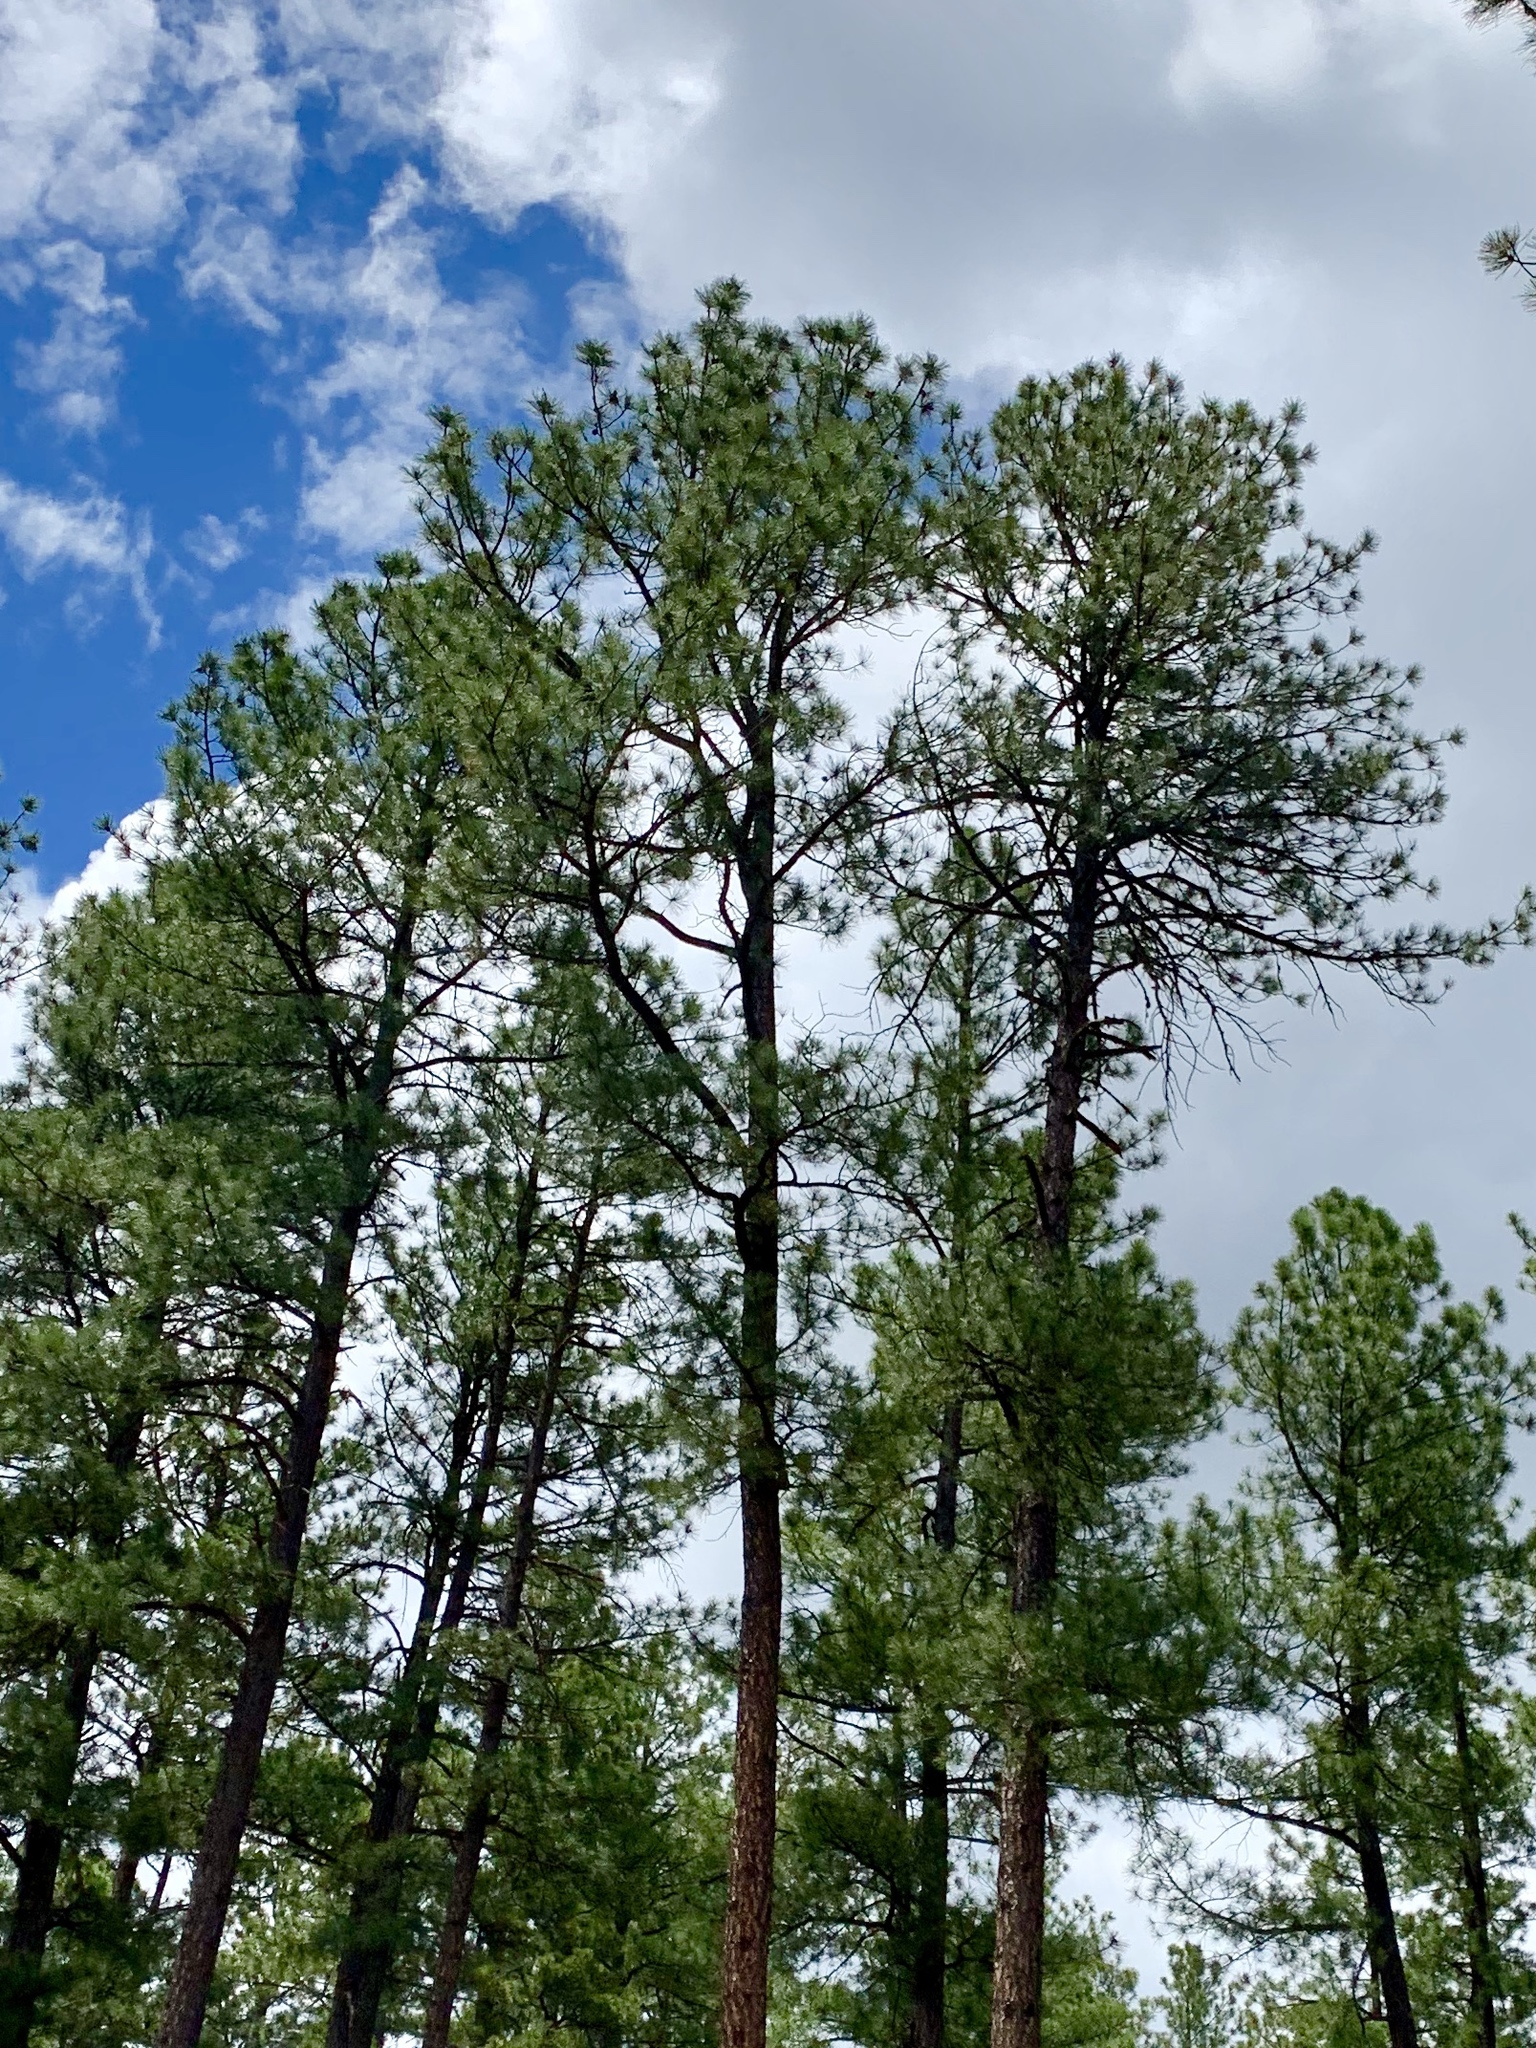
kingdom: Plantae
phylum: Tracheophyta
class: Pinopsida
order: Pinales
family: Pinaceae
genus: Pinus
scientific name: Pinus ponderosa
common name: Western yellow-pine
